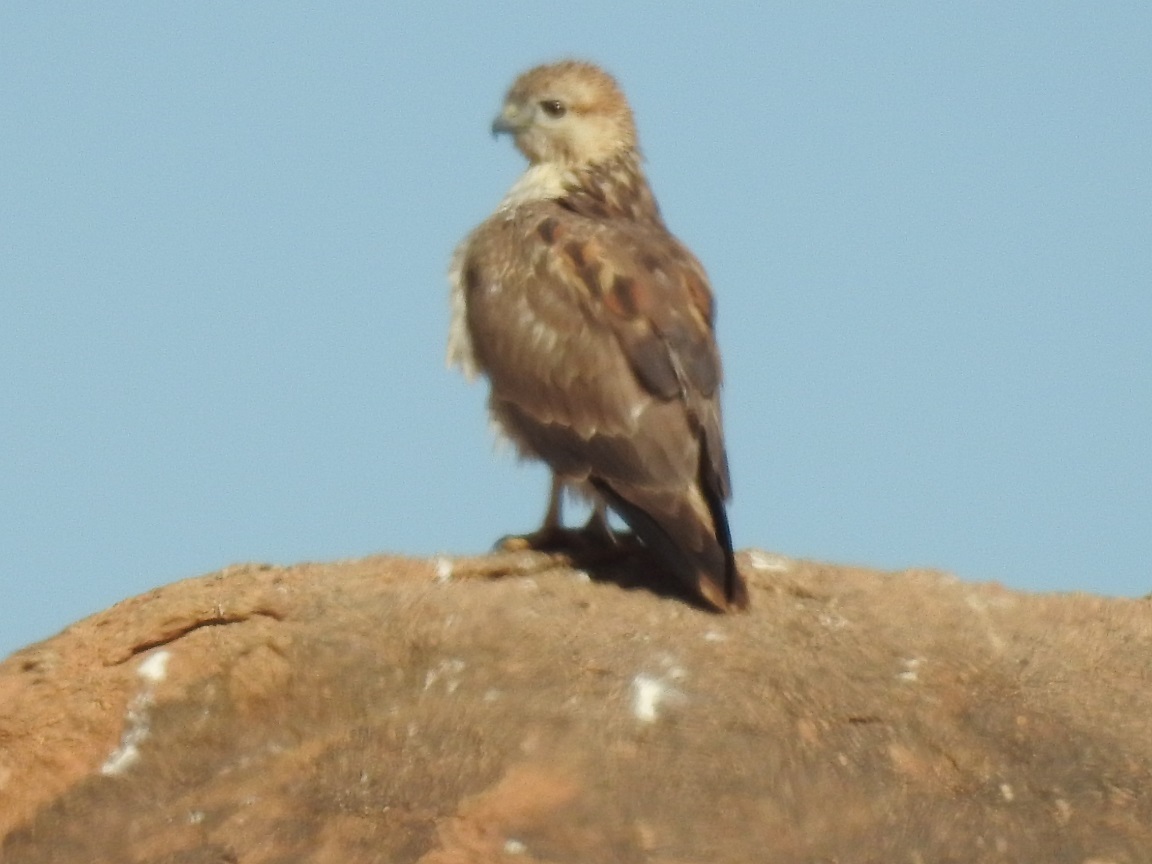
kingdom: Animalia
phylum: Chordata
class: Aves
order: Accipitriformes
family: Accipitridae
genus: Buteo
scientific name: Buteo rufinus
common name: Long-legged buzzard
